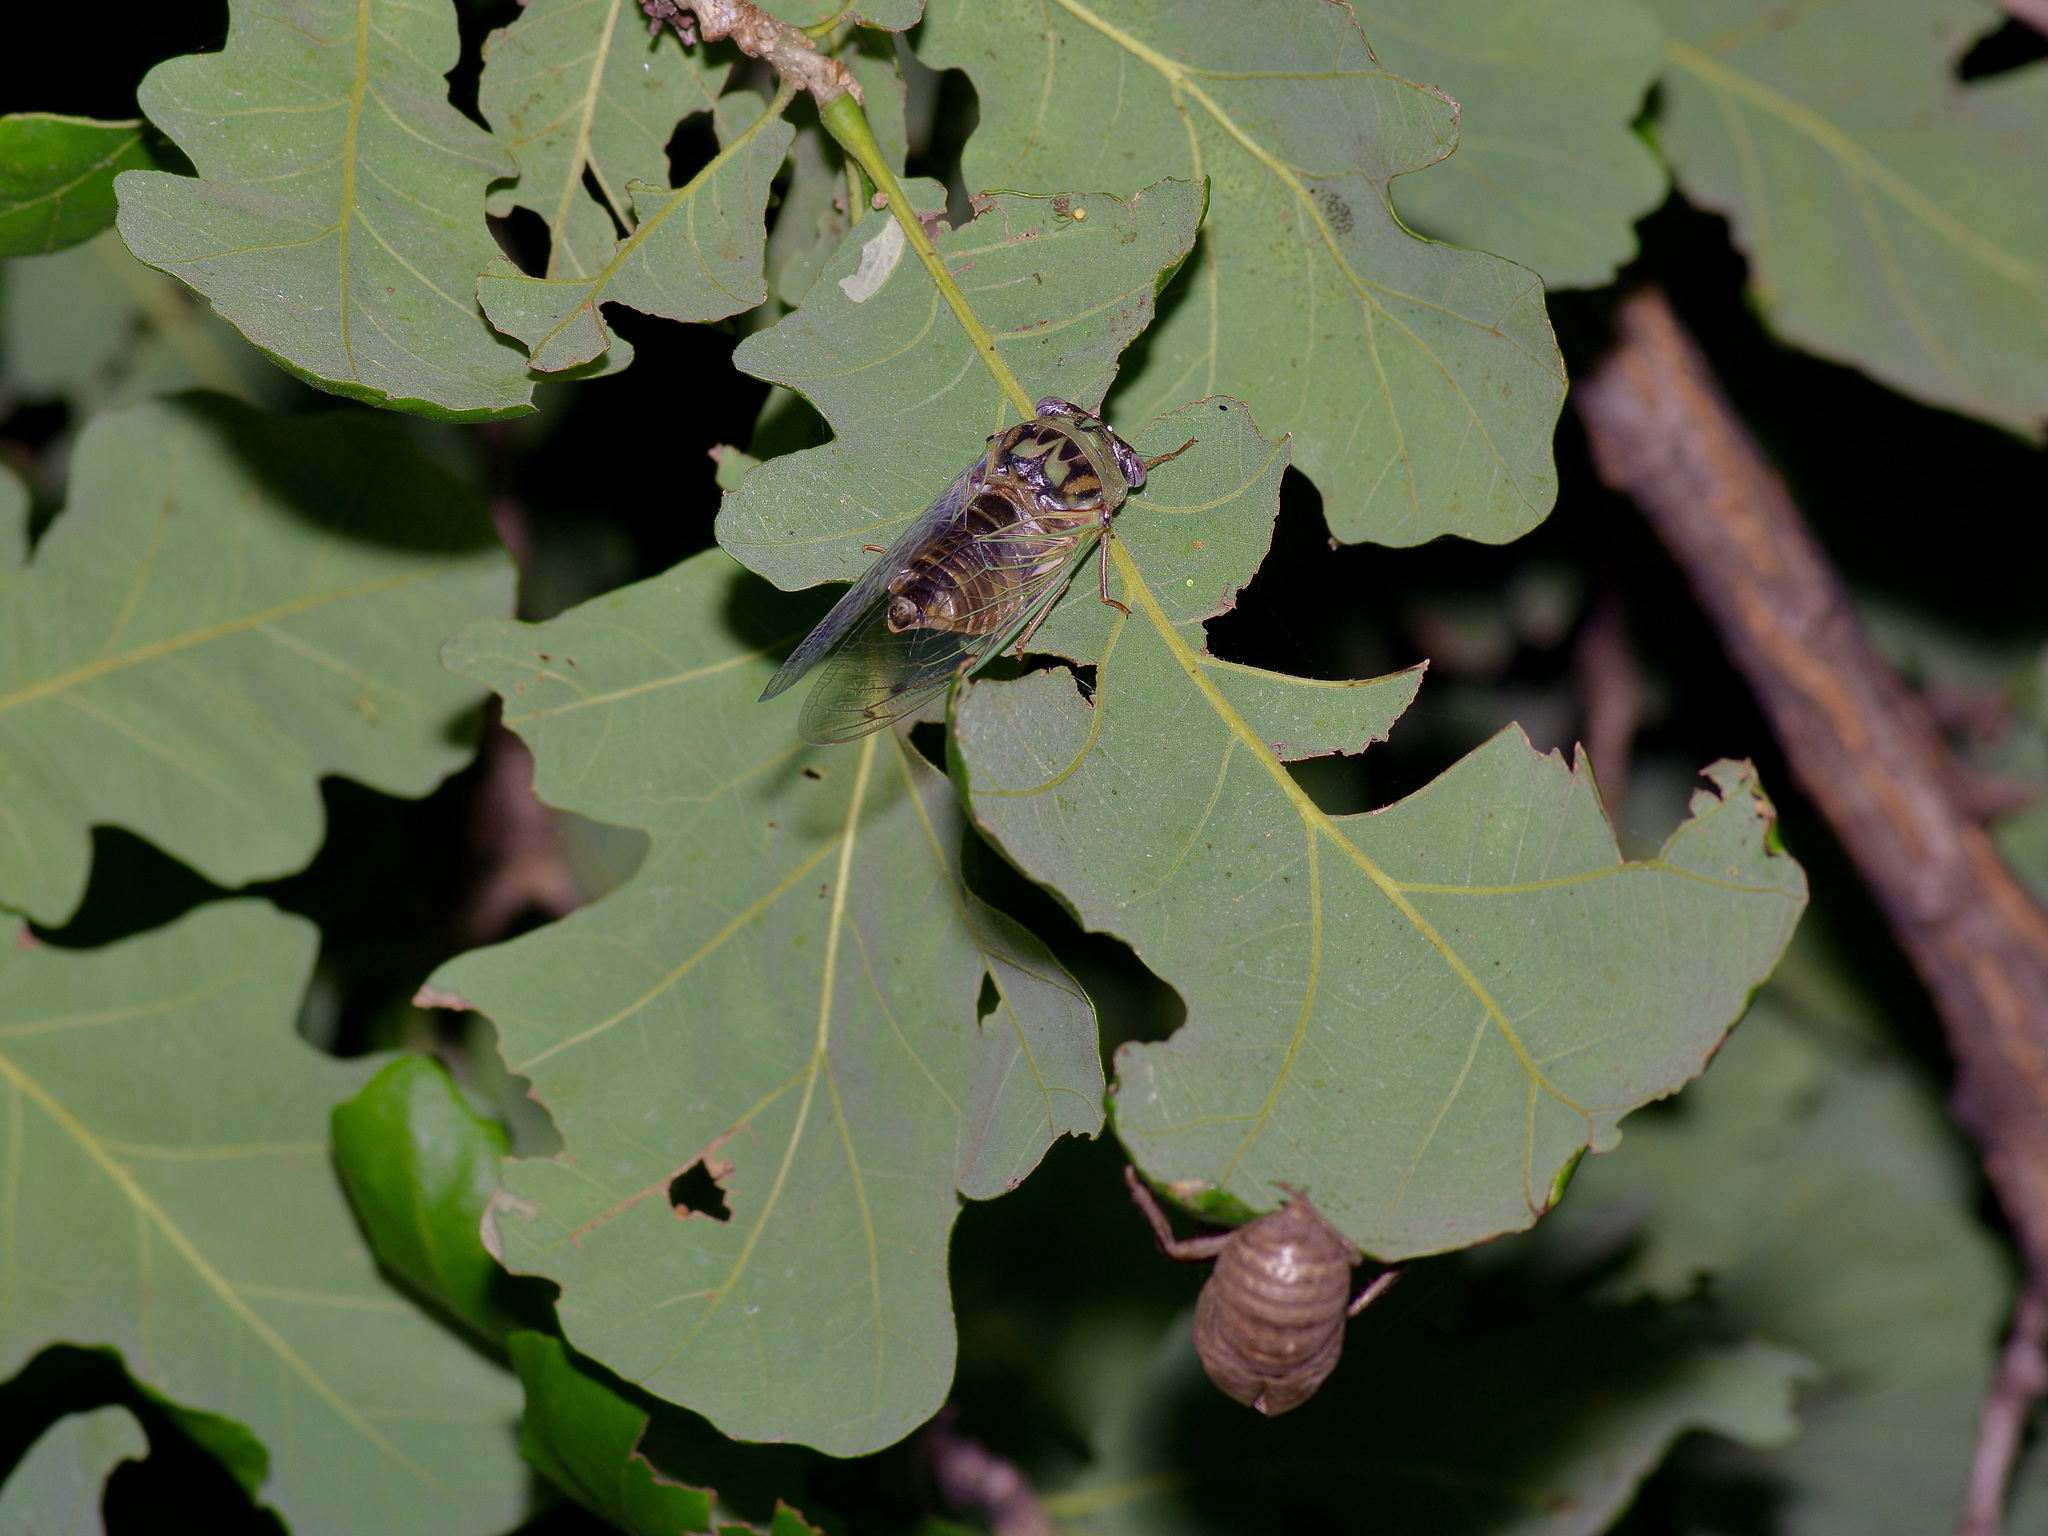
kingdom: Animalia
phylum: Arthropoda
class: Insecta
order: Hemiptera
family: Cicadidae
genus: Megatibicen
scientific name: Megatibicen resh
